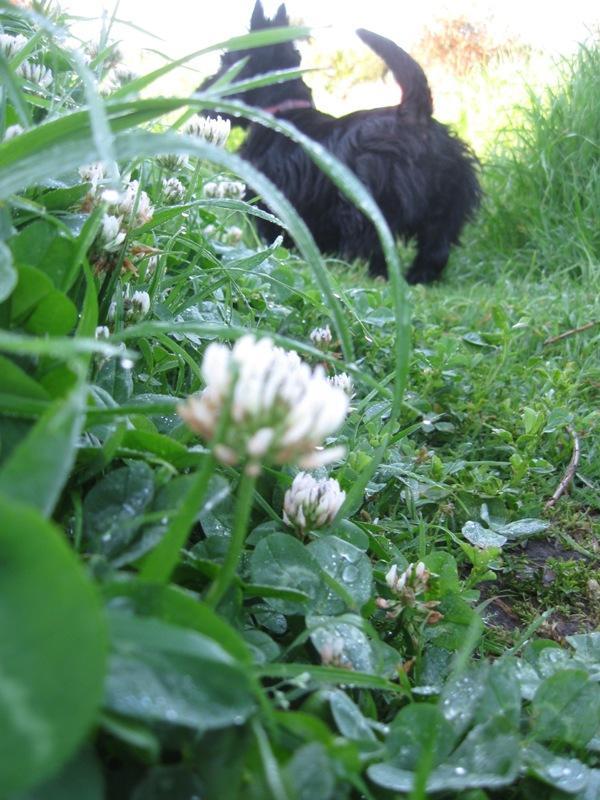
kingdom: Plantae
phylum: Tracheophyta
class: Magnoliopsida
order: Fabales
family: Fabaceae
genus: Trifolium
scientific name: Trifolium repens
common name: White clover
